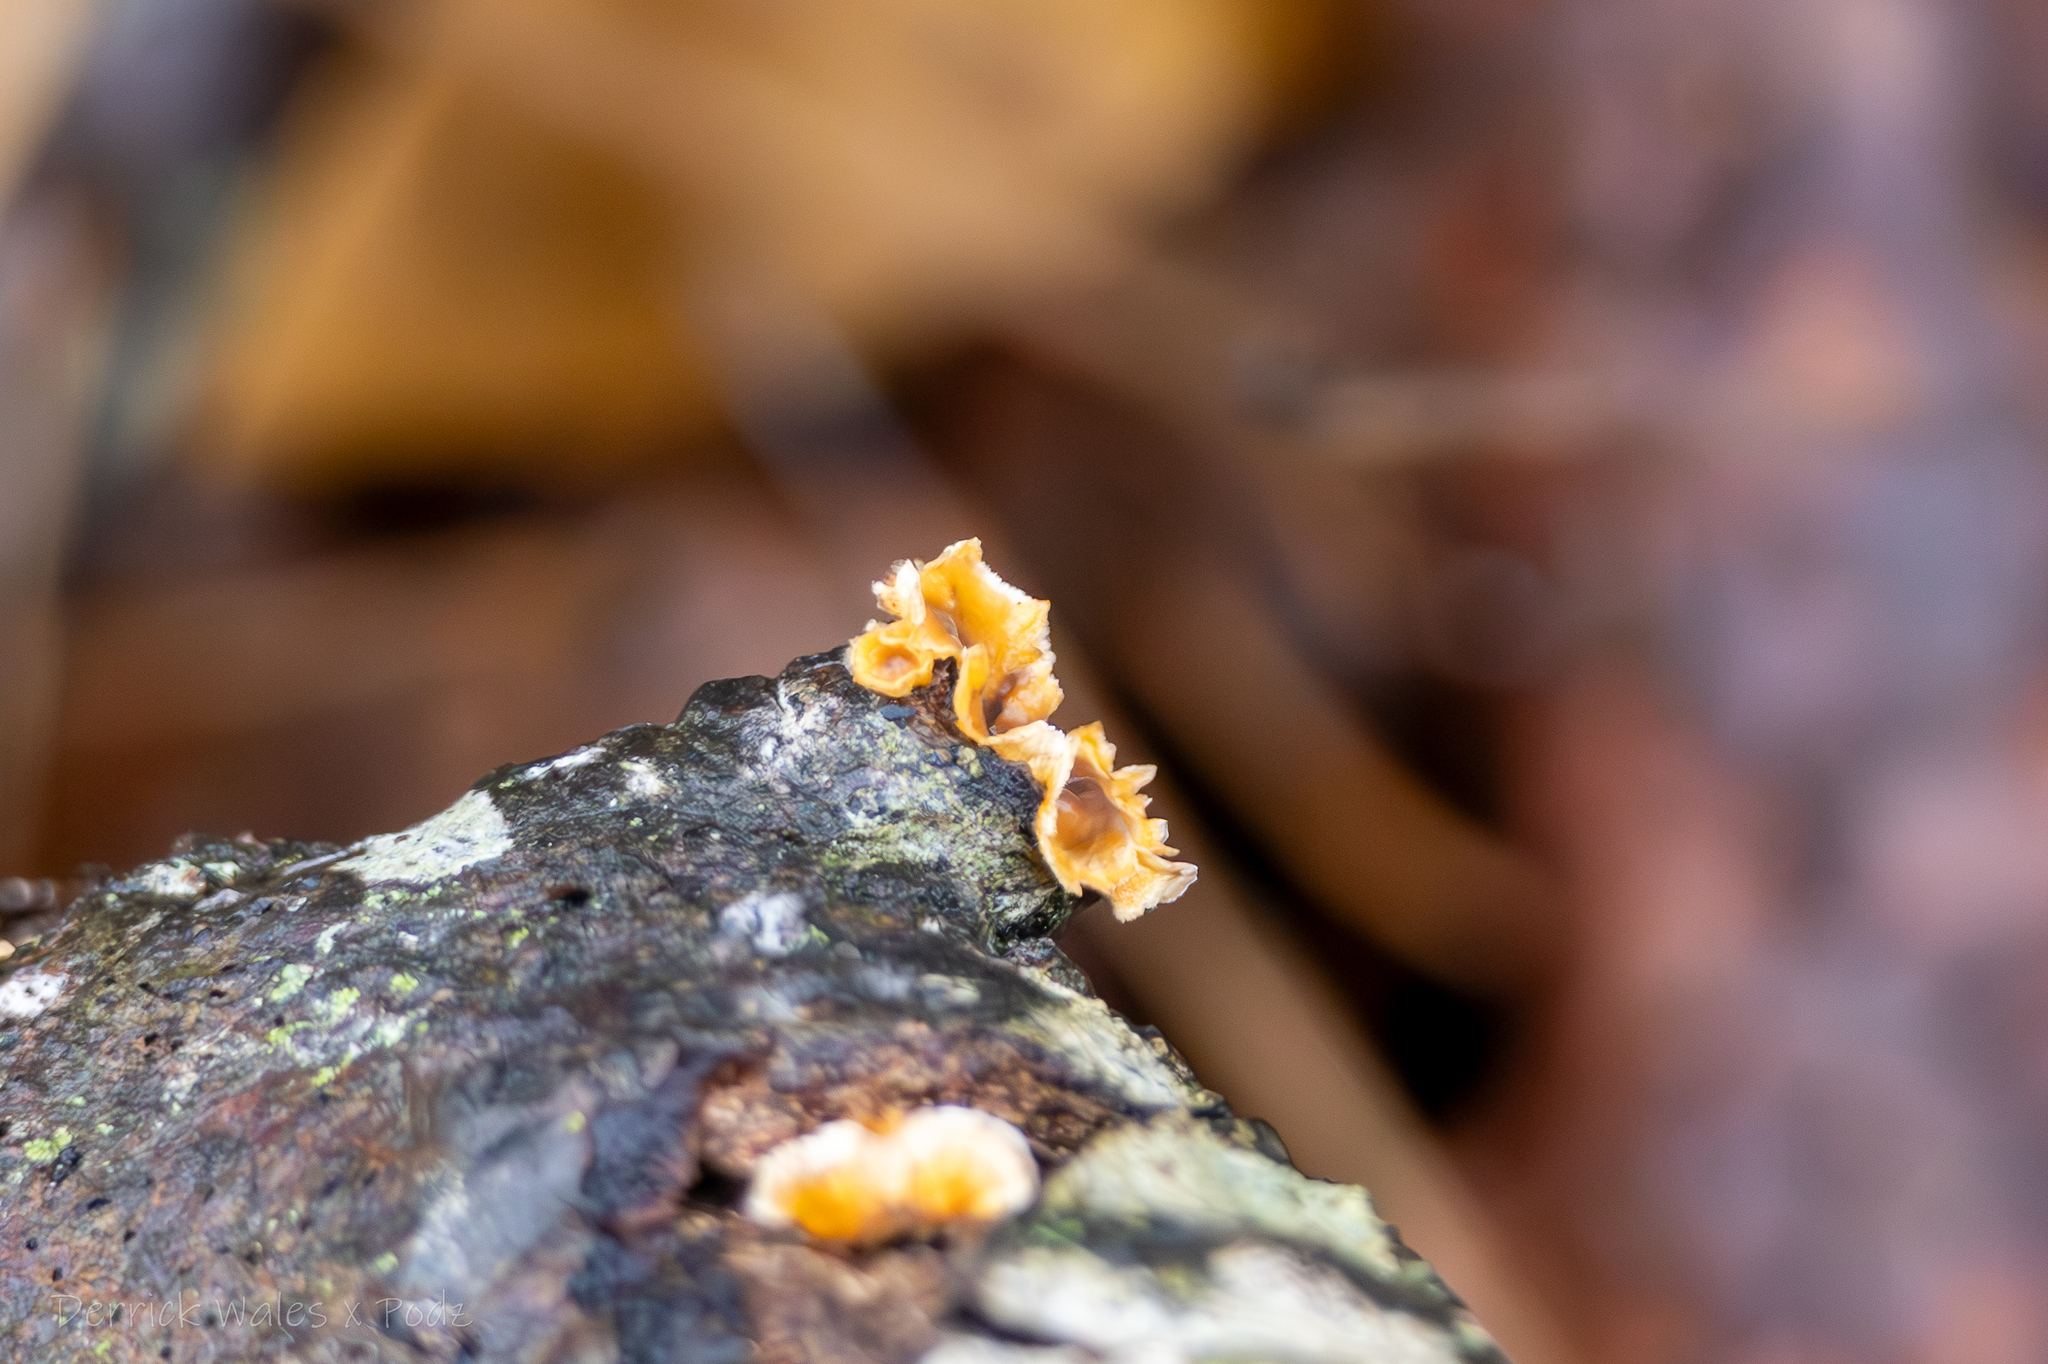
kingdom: Fungi
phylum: Basidiomycota
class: Agaricomycetes
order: Russulales
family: Stereaceae
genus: Stereum
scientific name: Stereum complicatum
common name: Crowded parchment
